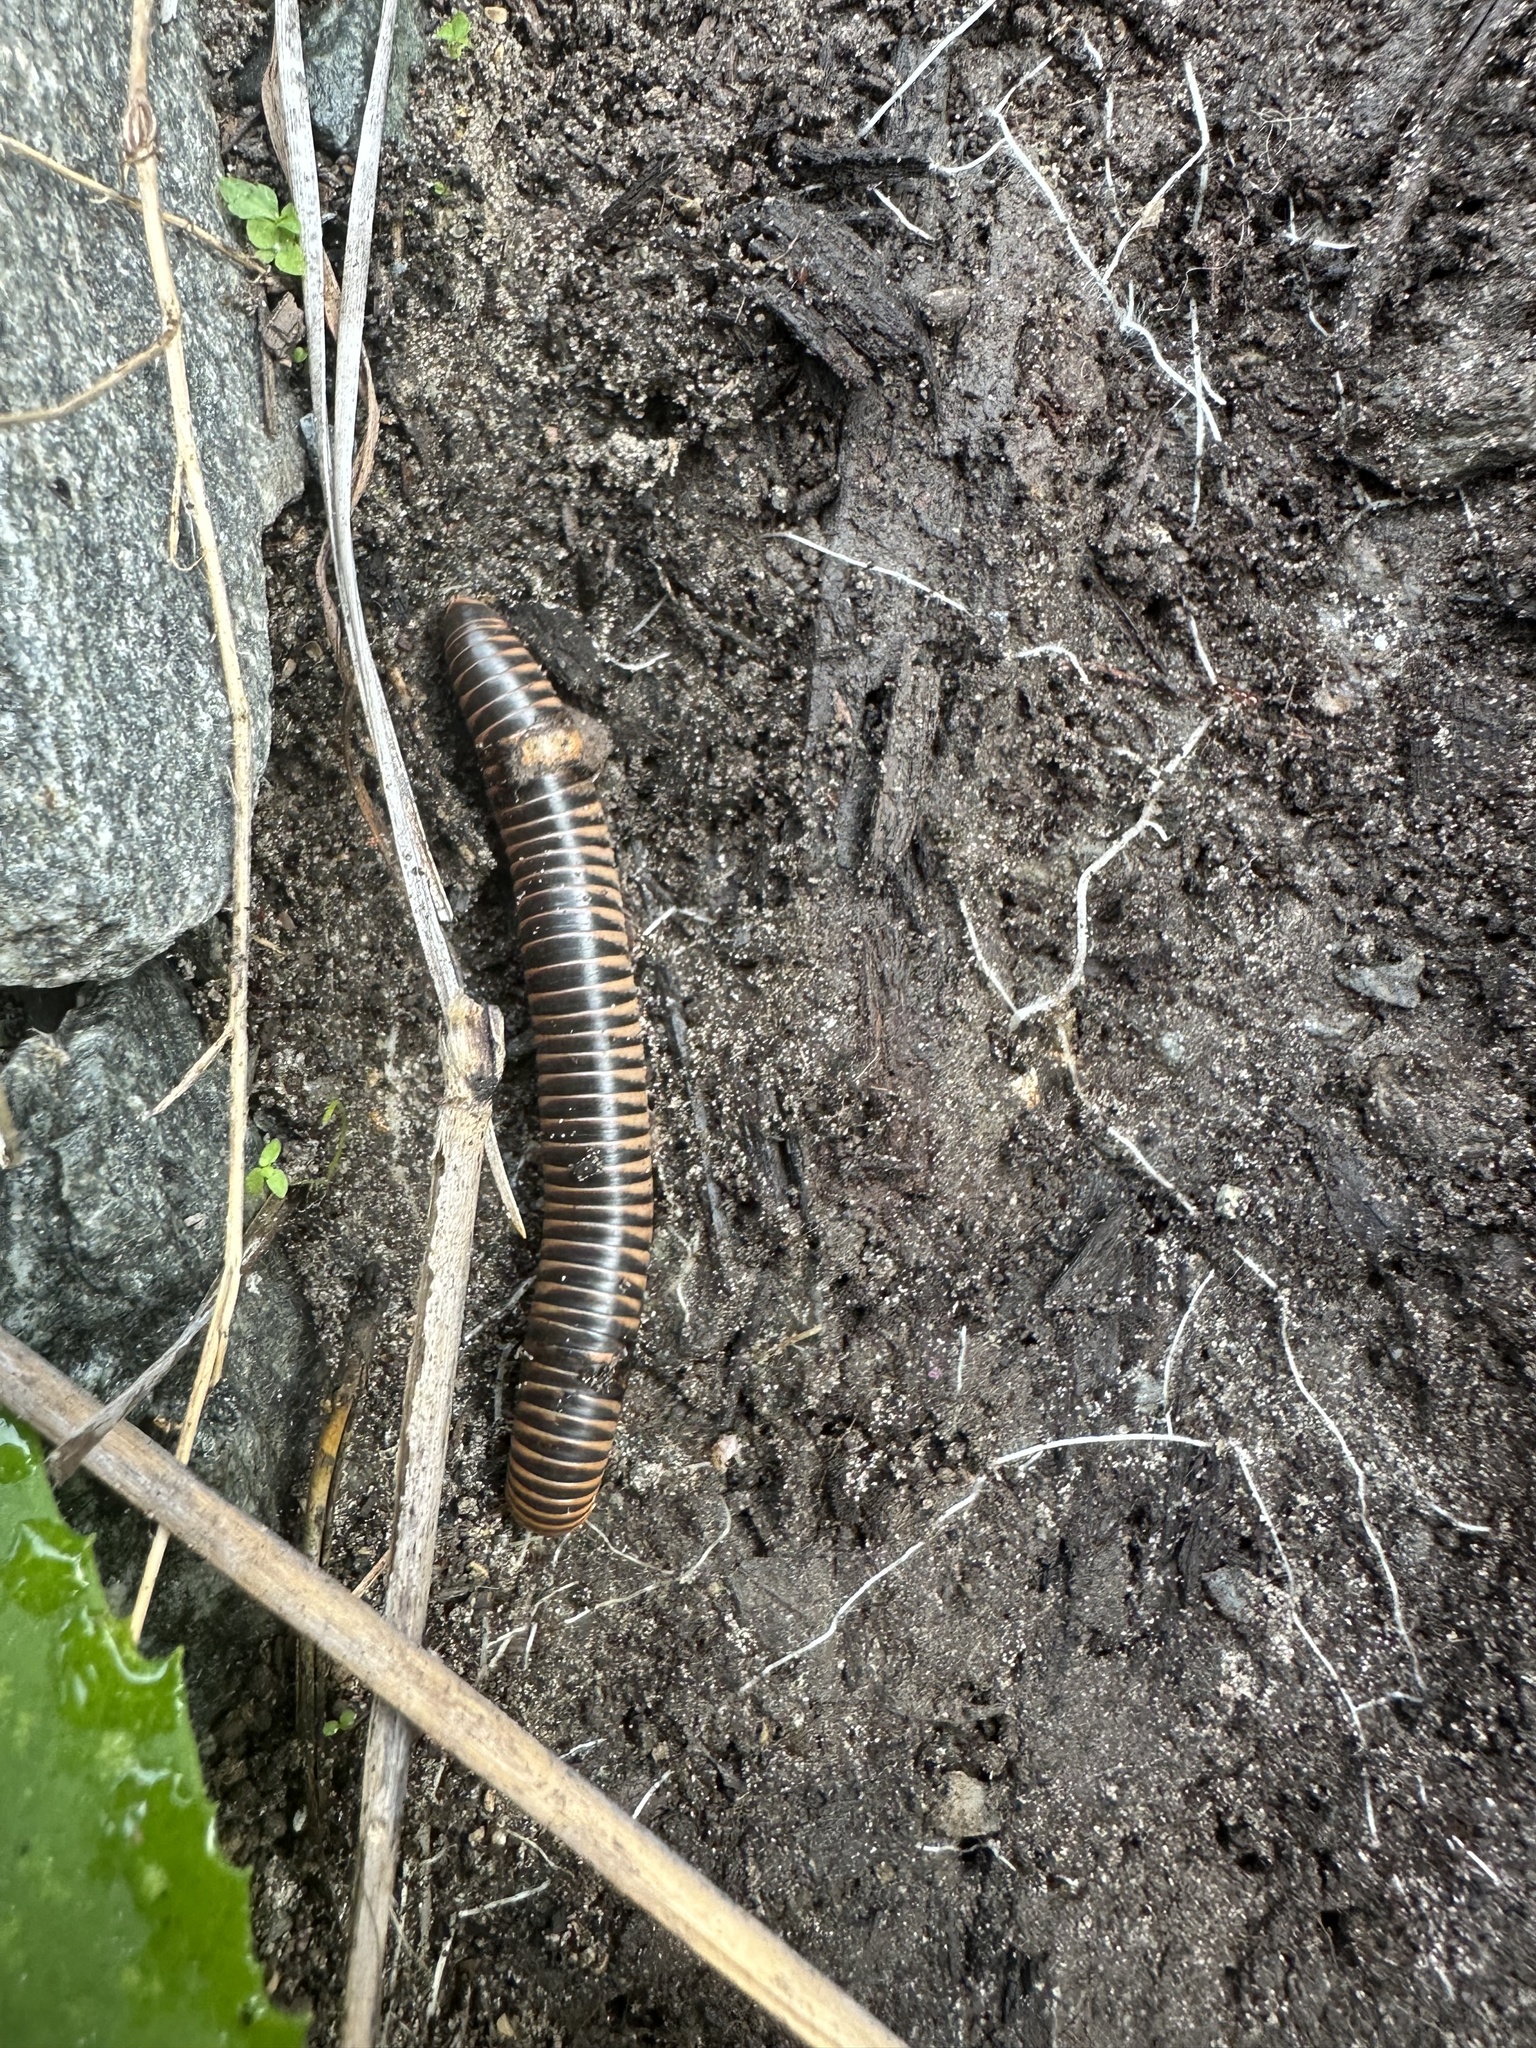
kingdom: Animalia
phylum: Arthropoda
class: Diplopoda
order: Spirobolida
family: Spirobolidae
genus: Chicobolus
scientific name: Chicobolus spinigerus
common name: Florida ivory millipede
